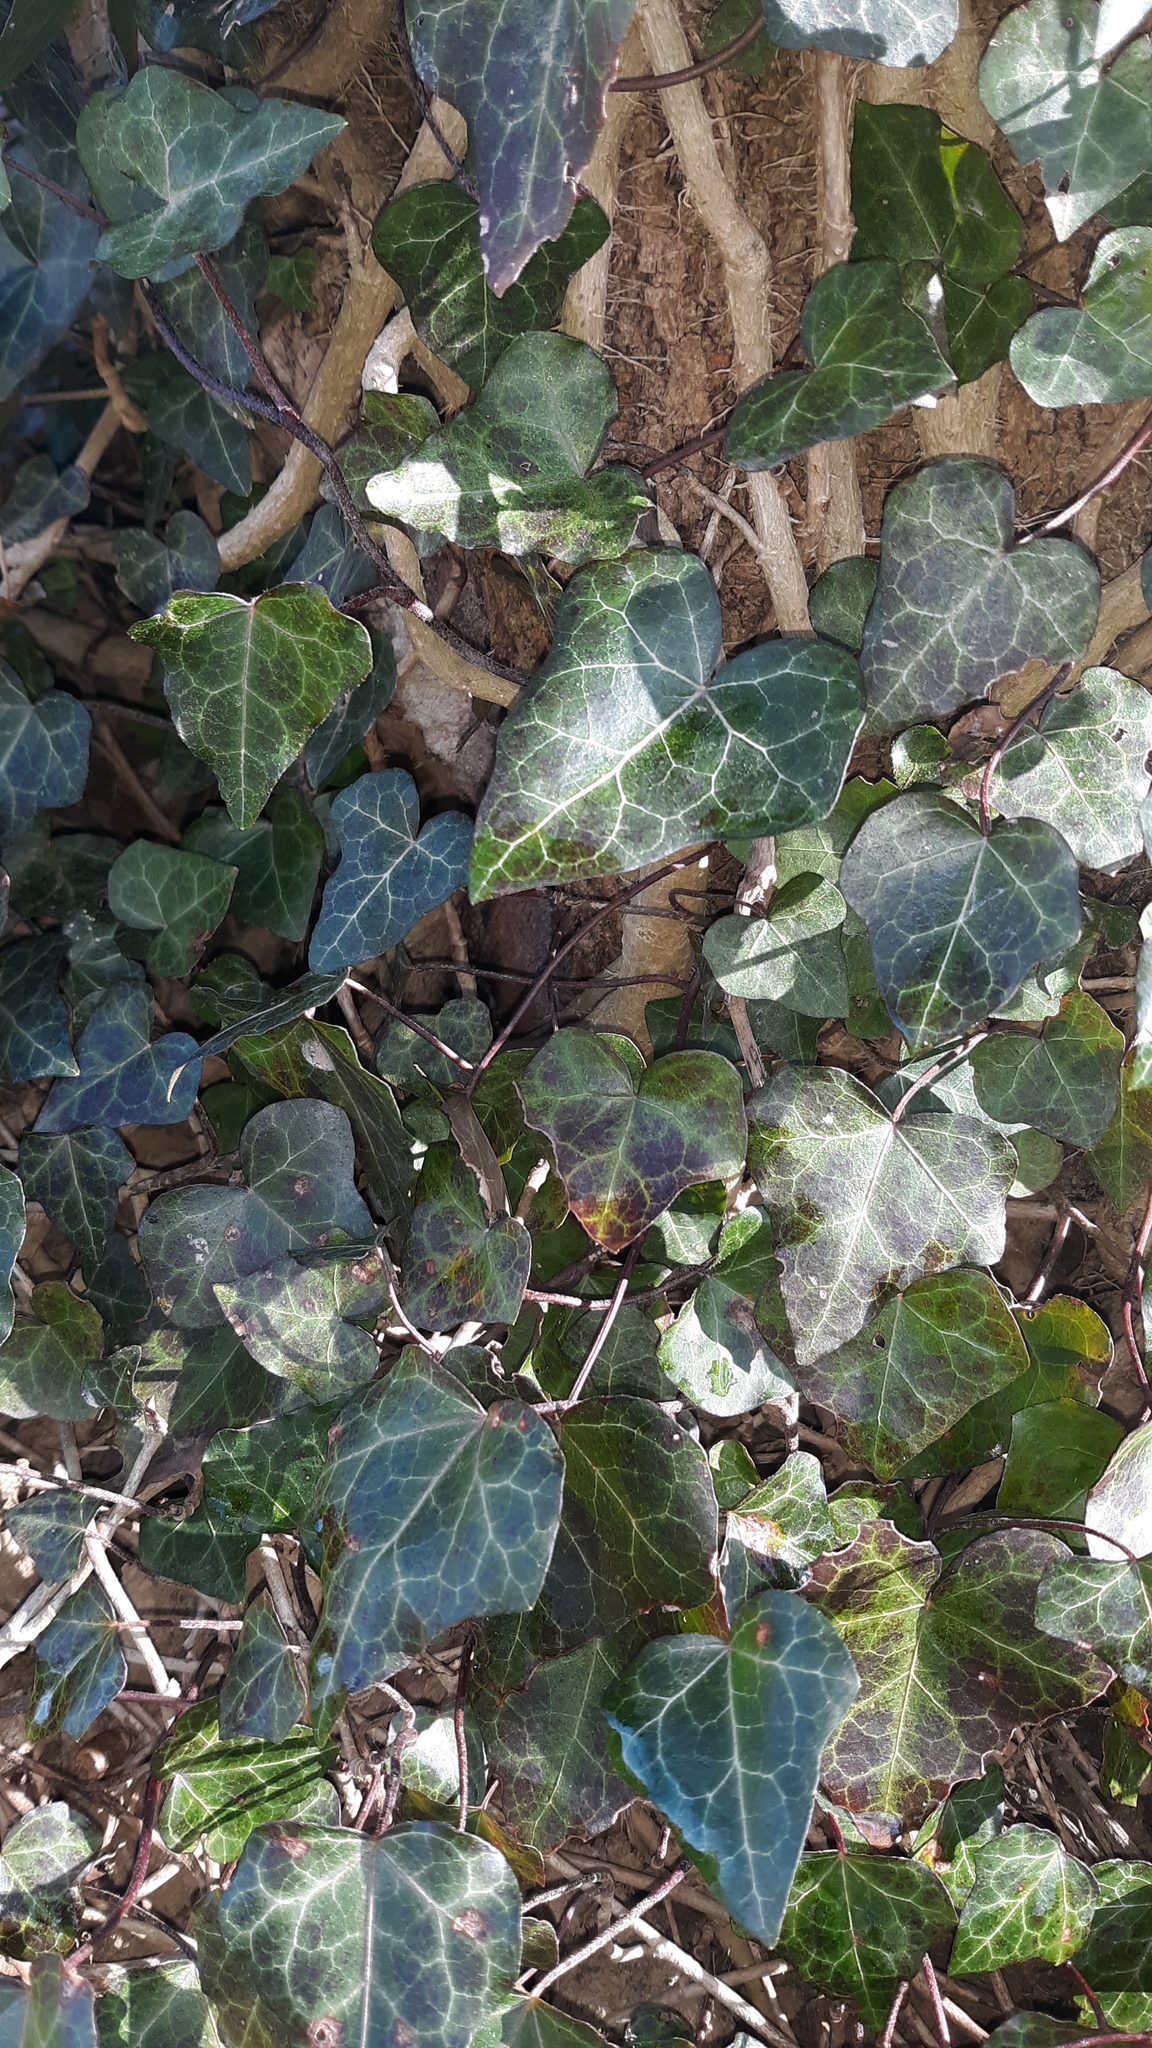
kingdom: Plantae
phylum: Tracheophyta
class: Magnoliopsida
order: Apiales
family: Araliaceae
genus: Hedera
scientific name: Hedera helix
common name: Ivy
